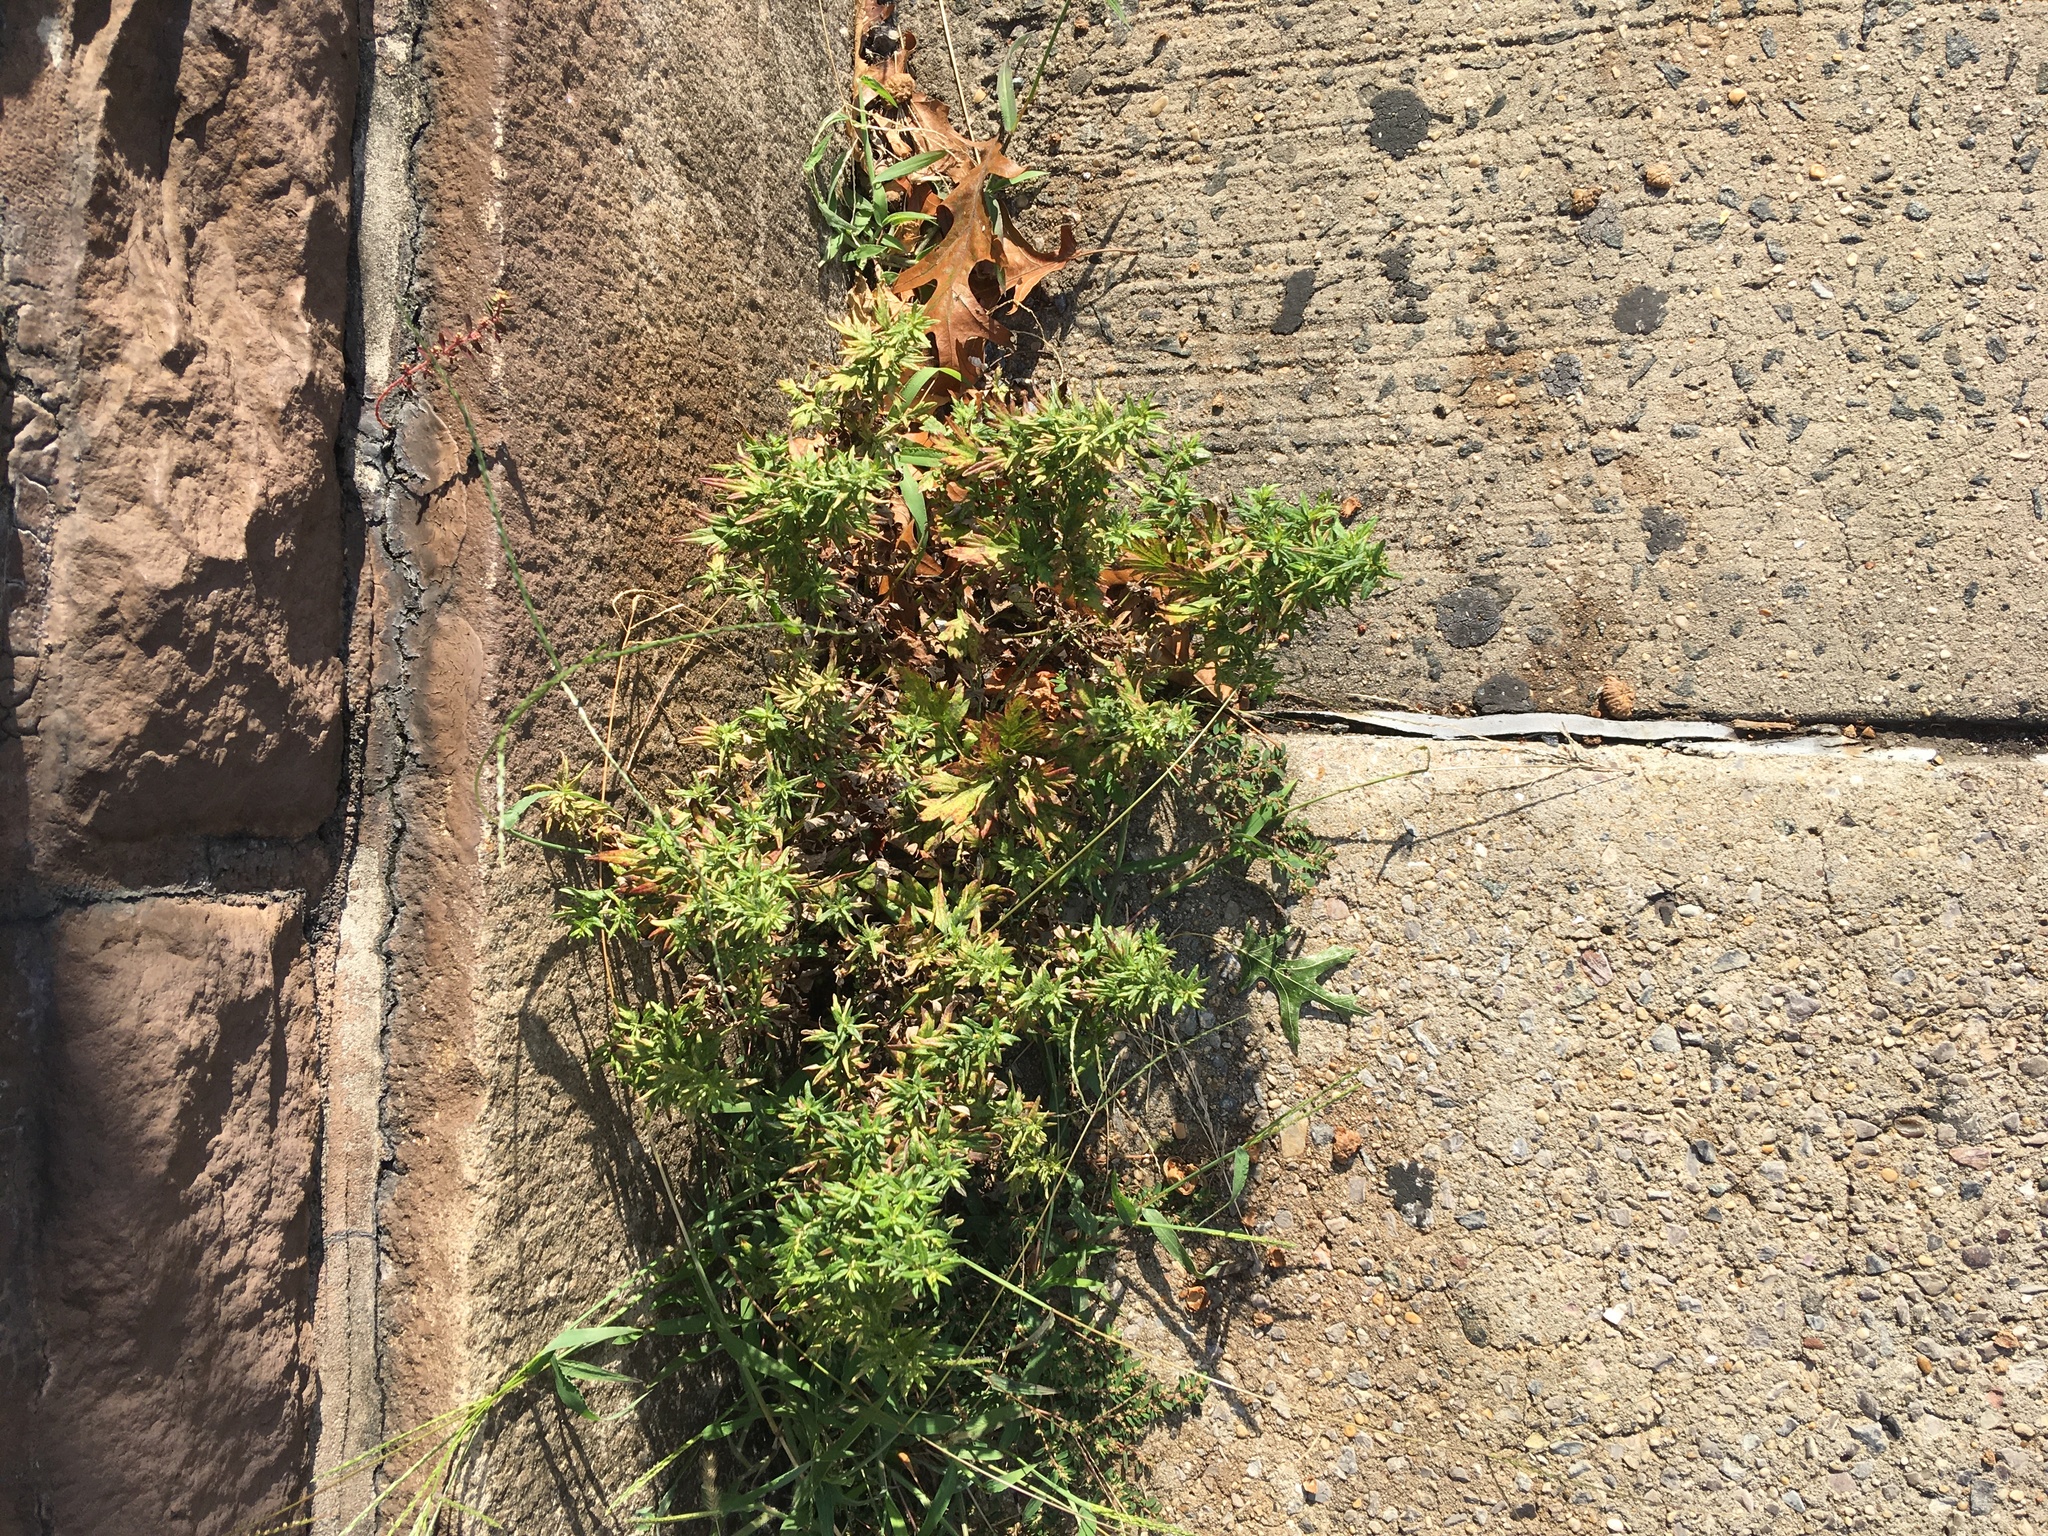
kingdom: Plantae
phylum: Tracheophyta
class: Magnoliopsida
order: Asterales
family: Asteraceae
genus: Artemisia
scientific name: Artemisia vulgaris
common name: Mugwort
